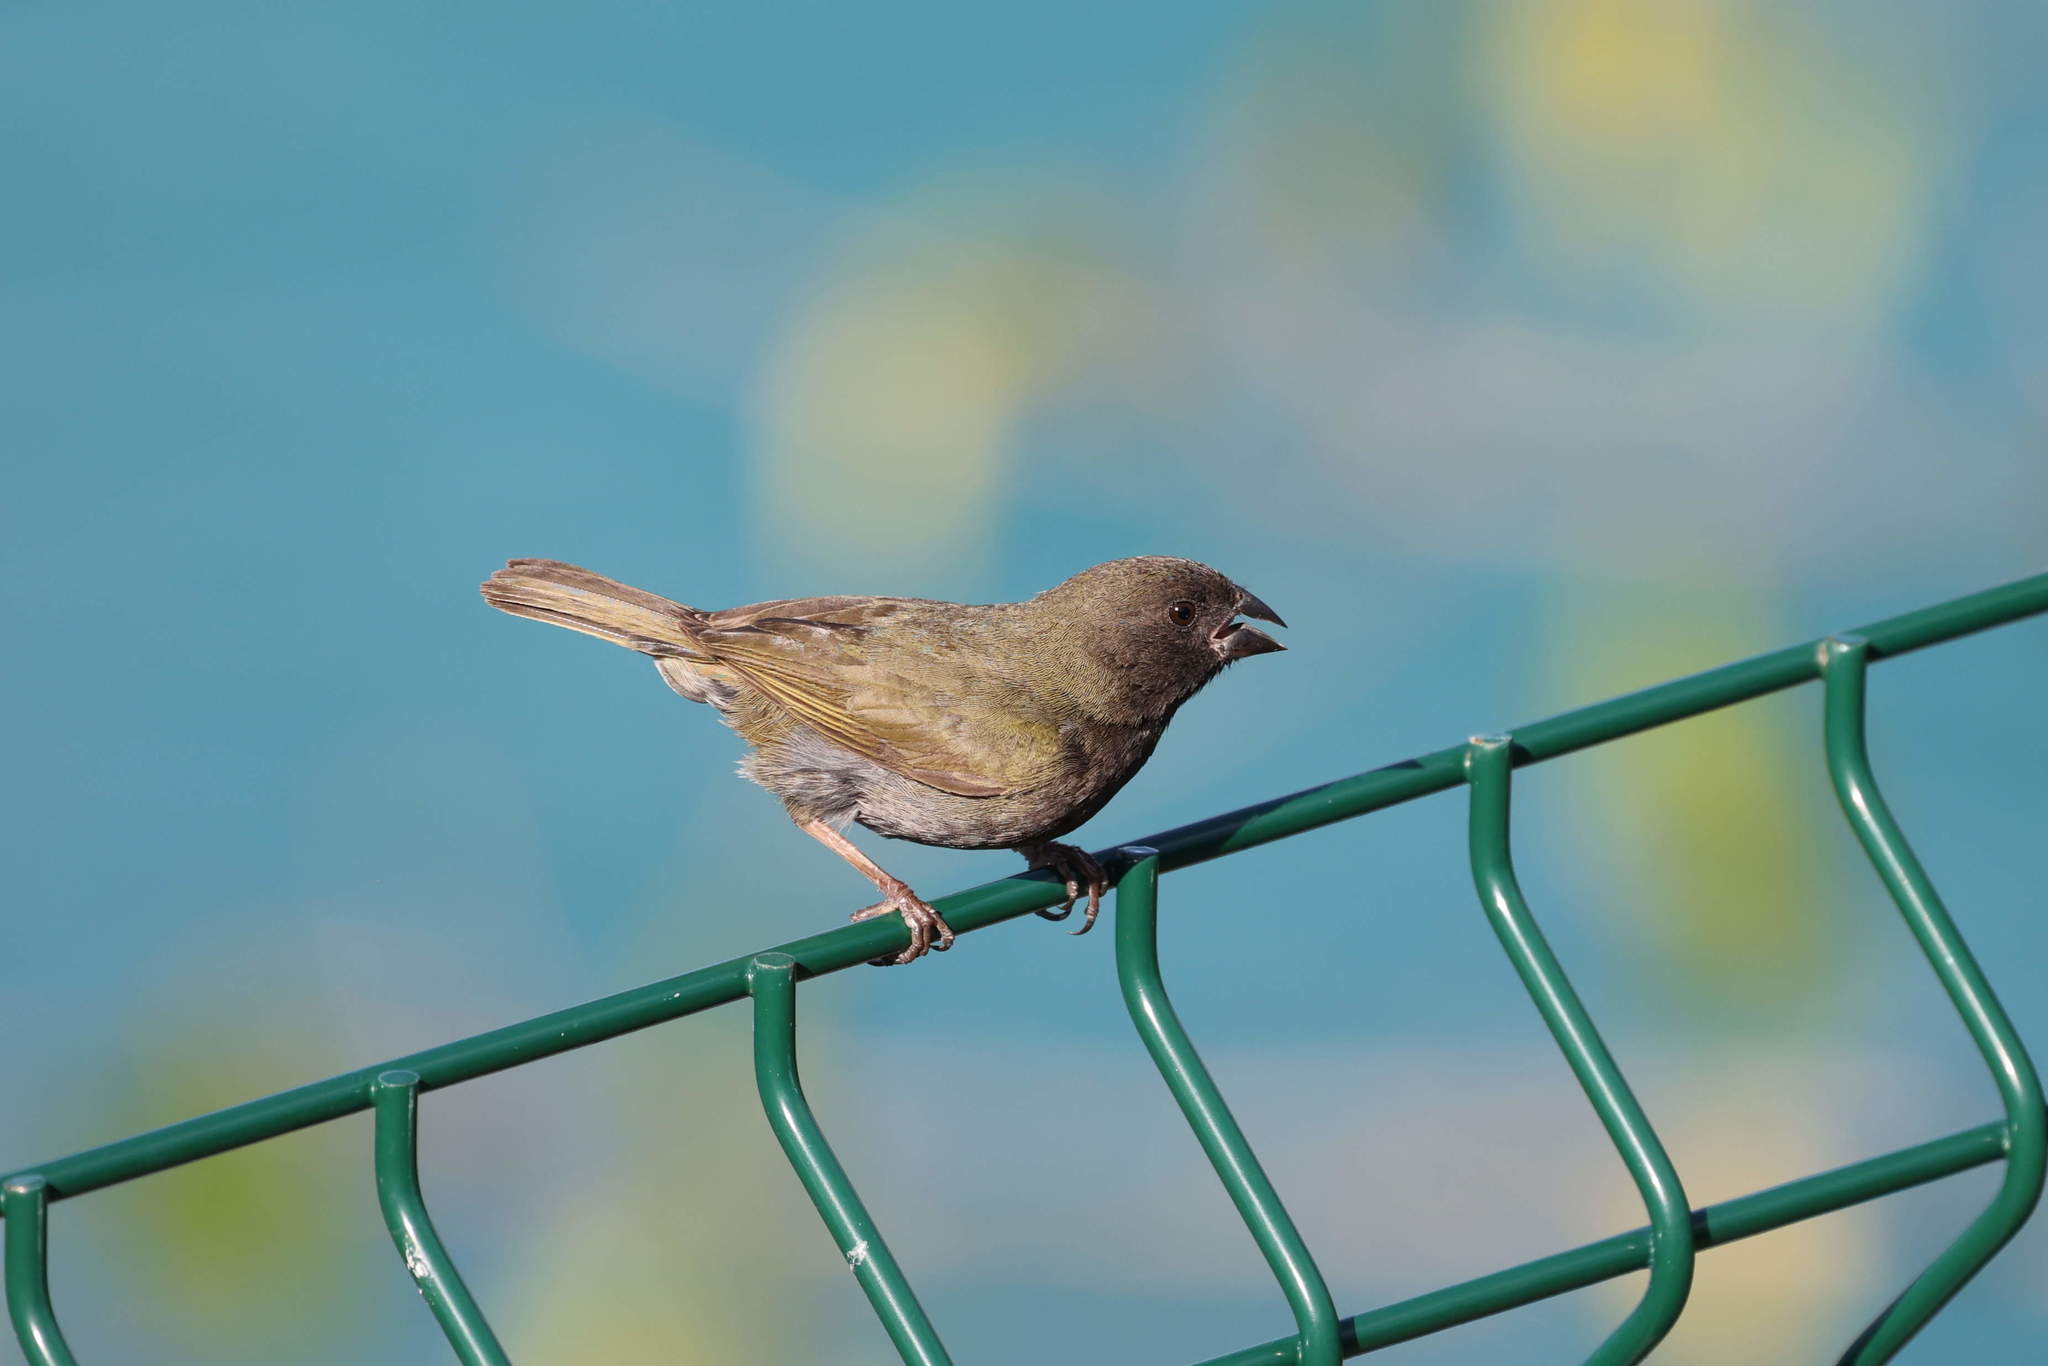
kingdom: Animalia
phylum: Chordata
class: Aves
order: Passeriformes
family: Thraupidae
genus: Melanospiza
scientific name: Melanospiza bicolor
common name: Black-faced grassquit
